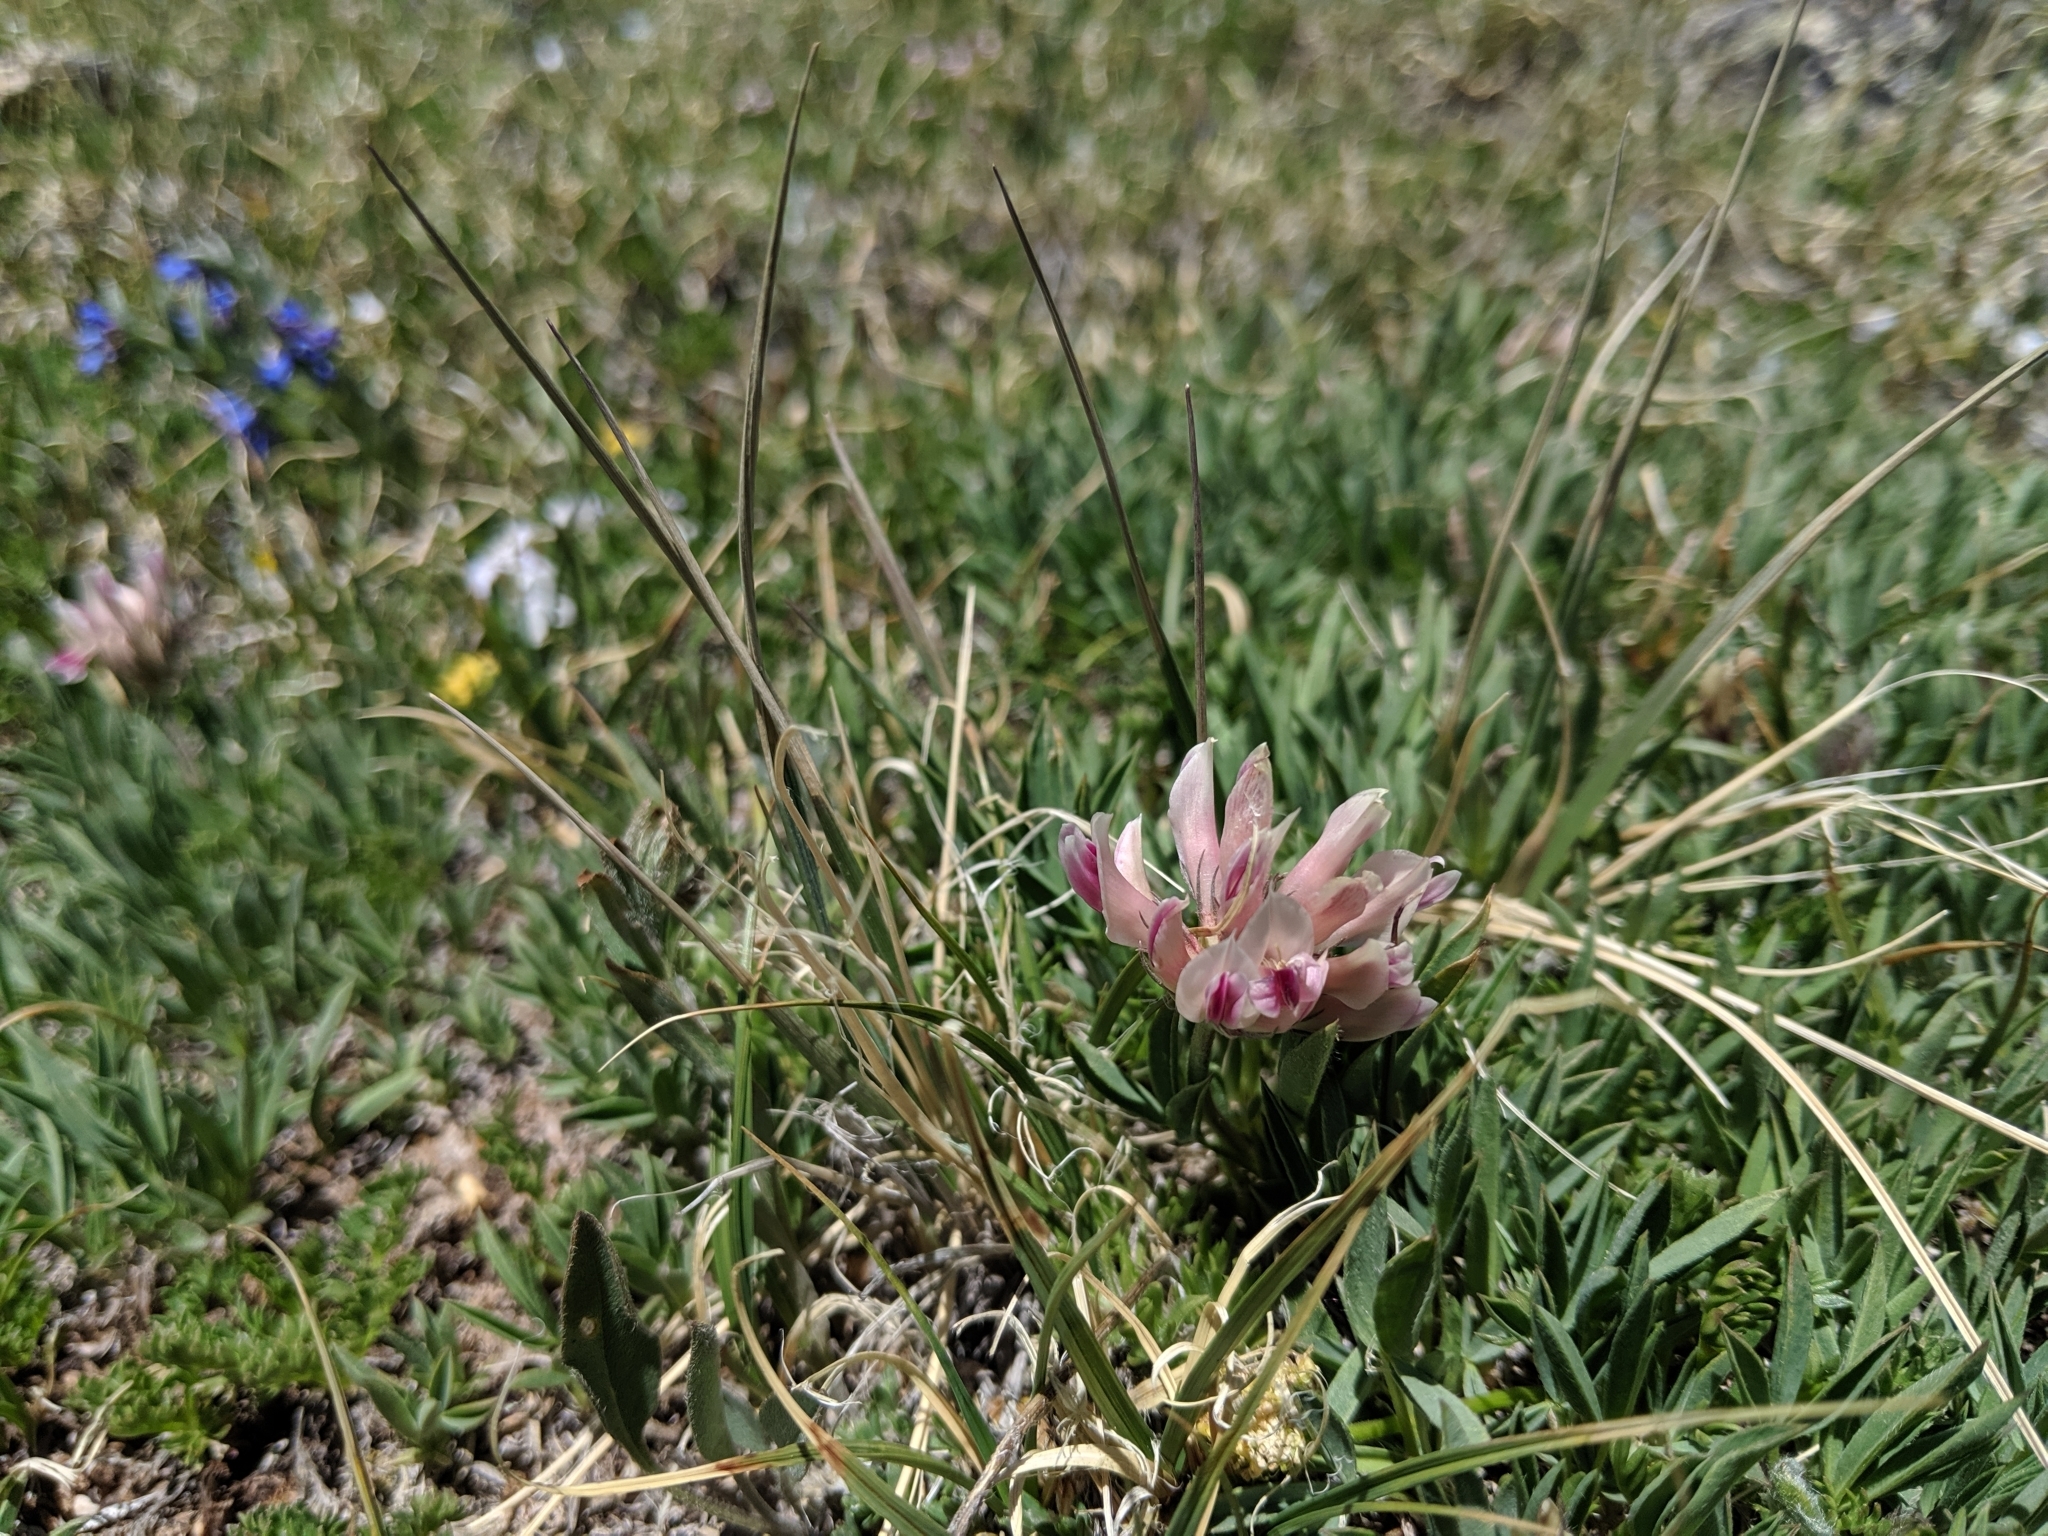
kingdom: Plantae
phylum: Tracheophyta
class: Magnoliopsida
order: Fabales
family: Fabaceae
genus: Trifolium
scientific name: Trifolium dasyphyllum
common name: Whip-root clover
